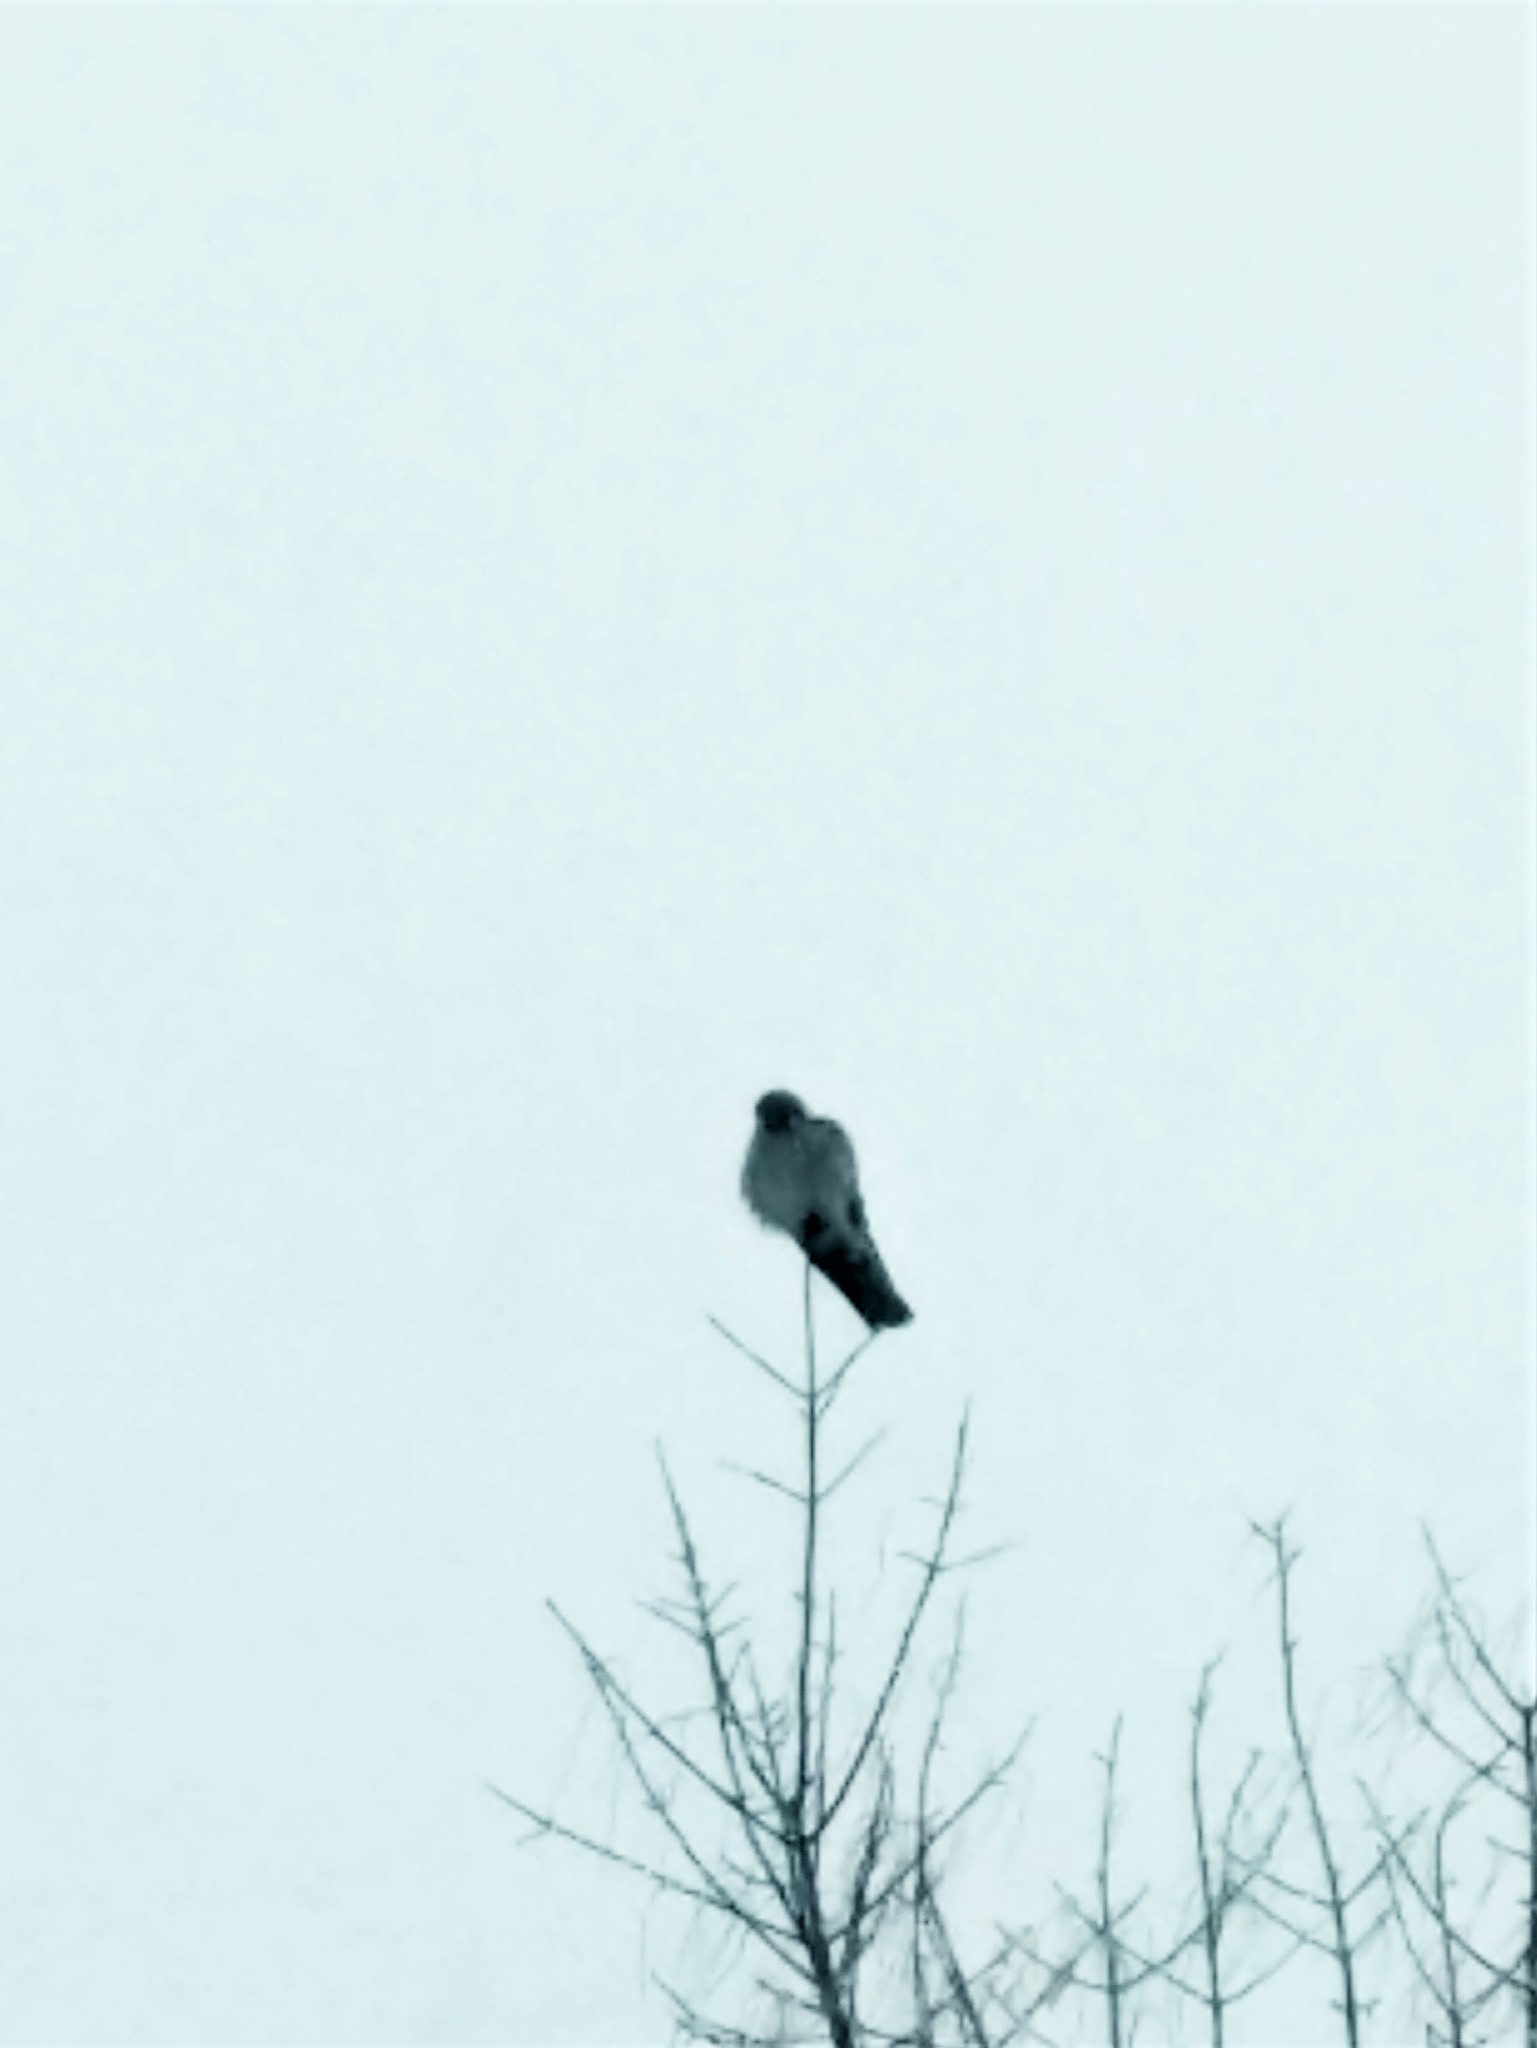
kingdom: Animalia
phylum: Chordata
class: Aves
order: Falconiformes
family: Falconidae
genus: Falco
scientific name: Falco sparverius
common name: American kestrel
